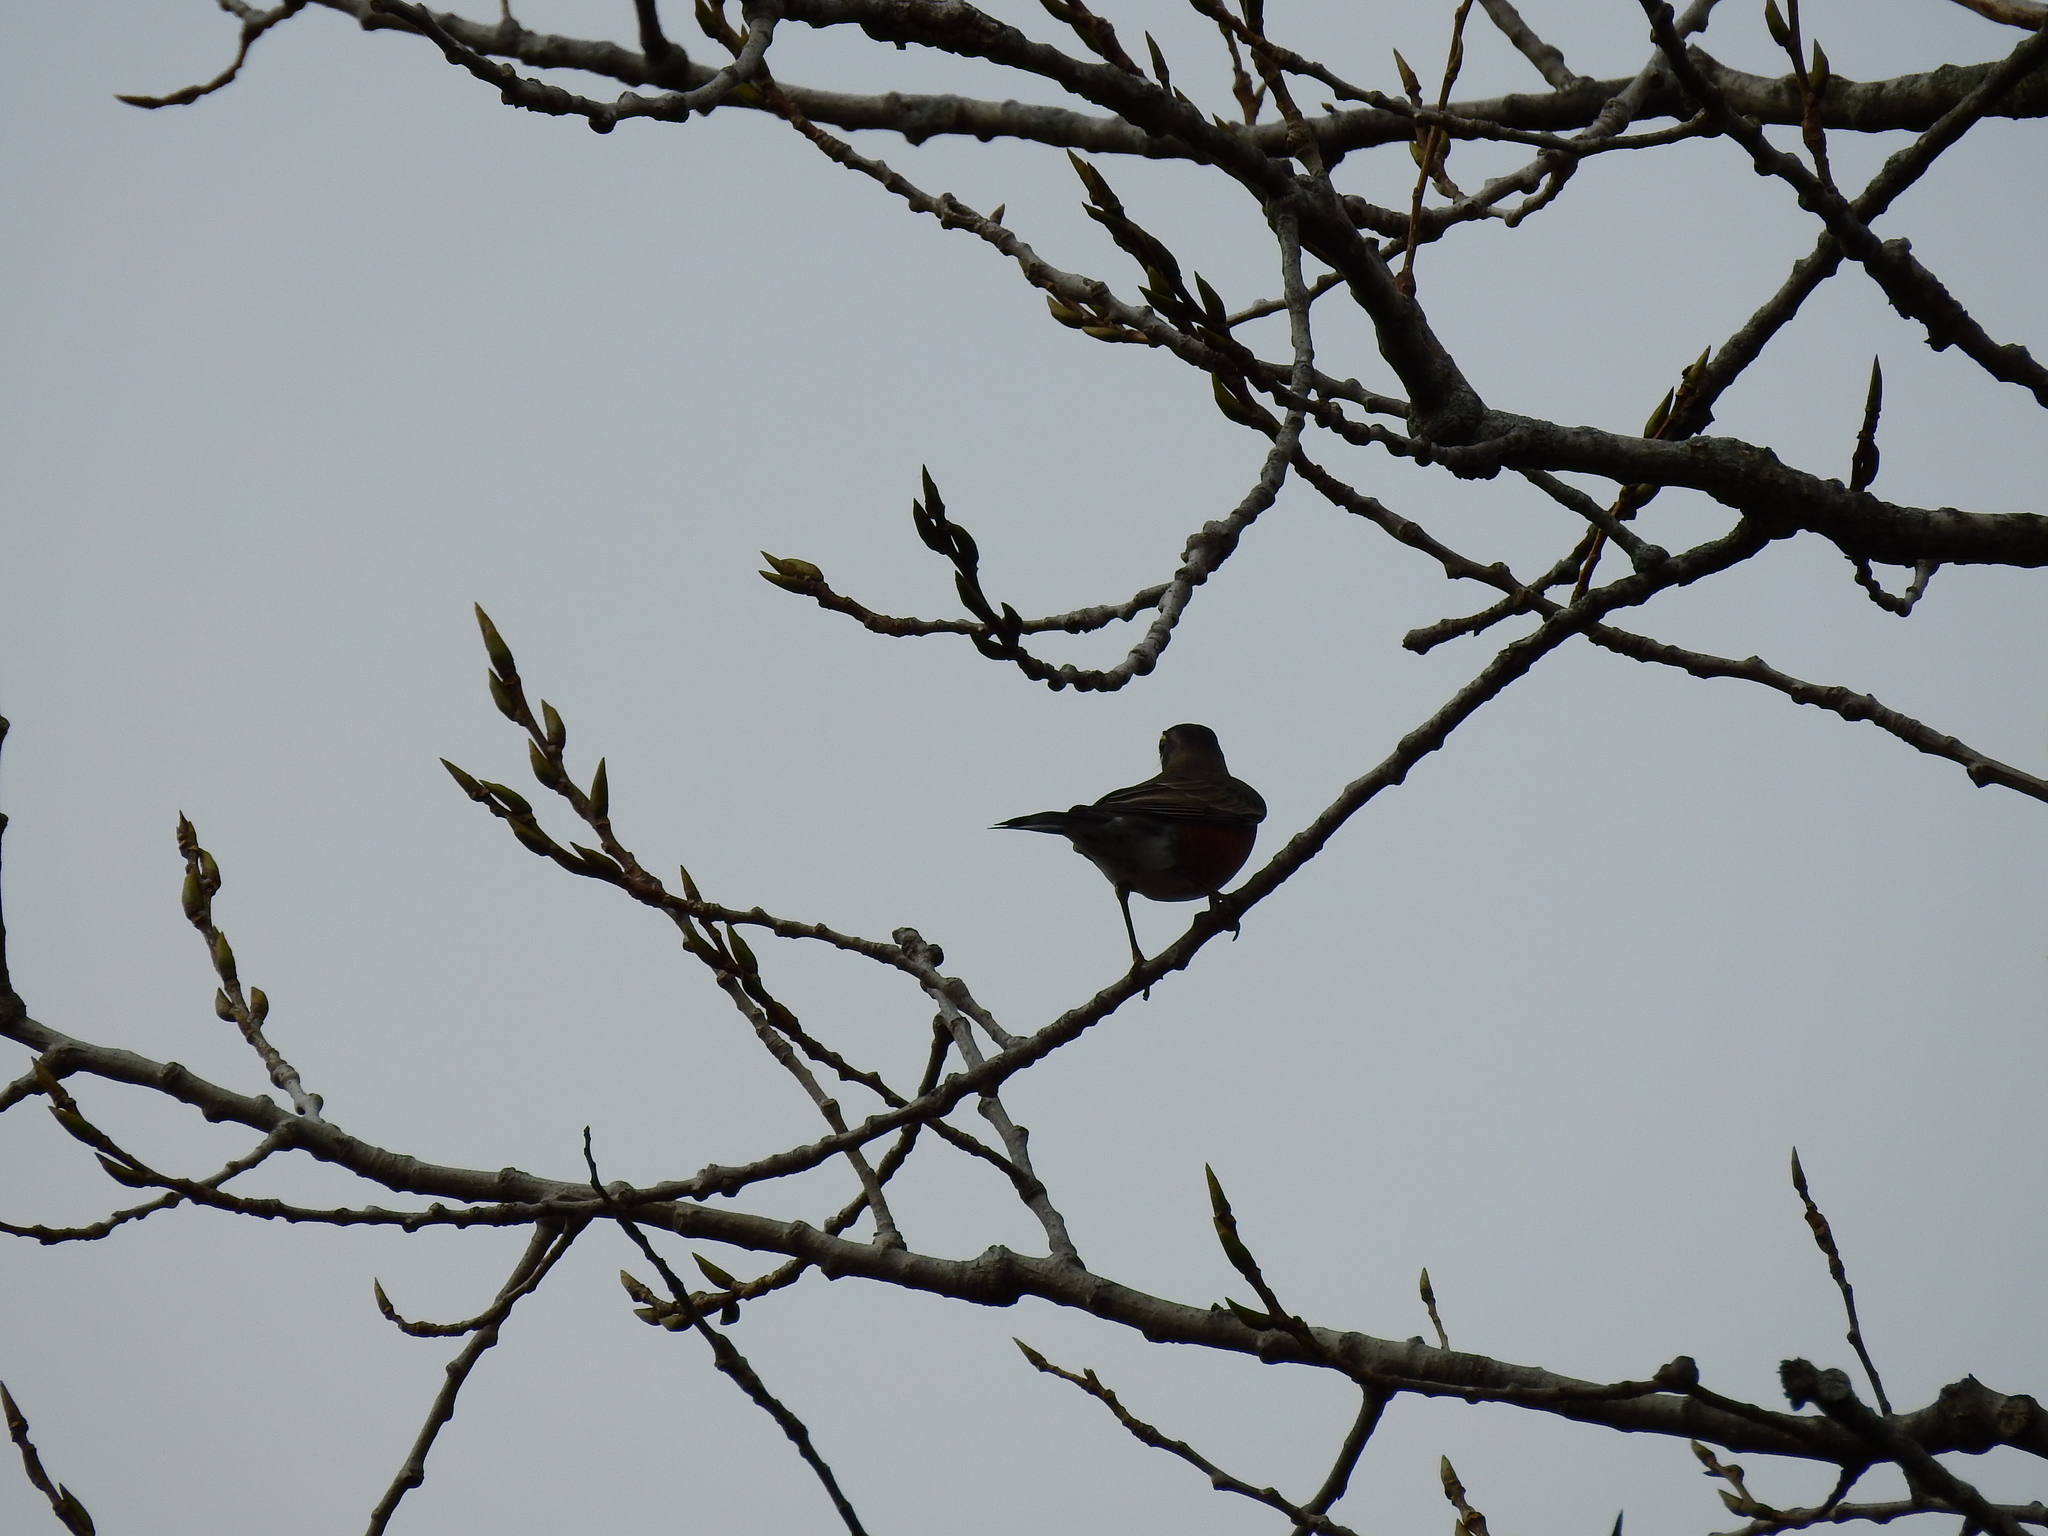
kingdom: Animalia
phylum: Chordata
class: Aves
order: Passeriformes
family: Turdidae
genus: Turdus
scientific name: Turdus migratorius
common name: American robin
